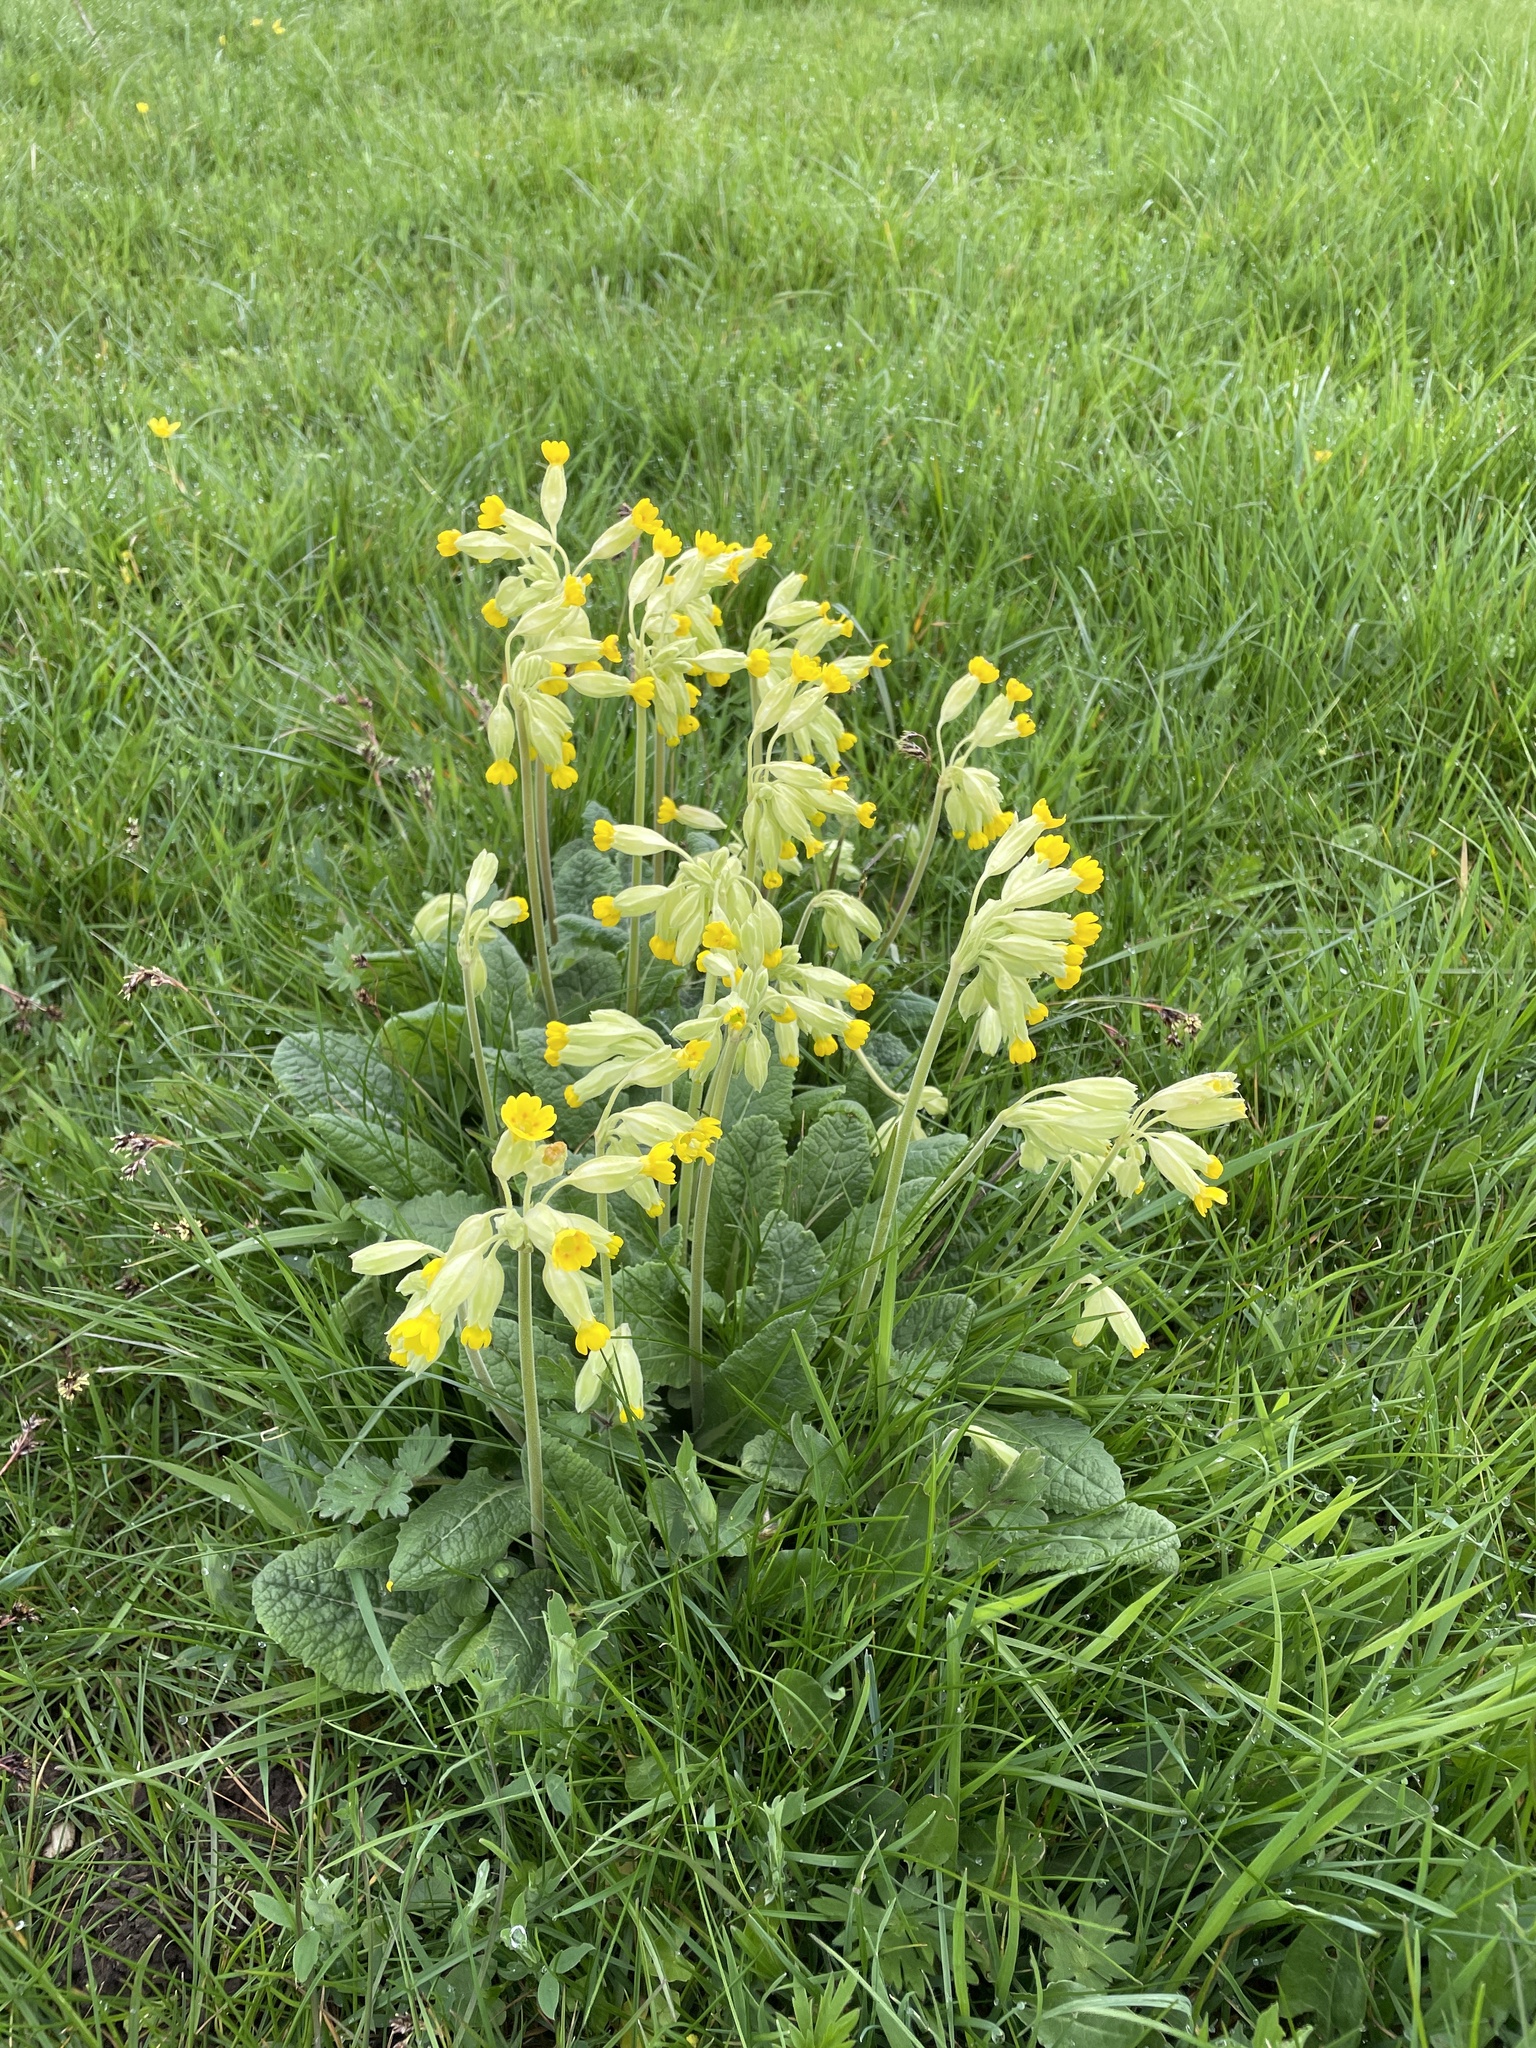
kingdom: Plantae
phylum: Tracheophyta
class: Magnoliopsida
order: Ericales
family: Primulaceae
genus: Primula
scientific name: Primula veris
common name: Cowslip
